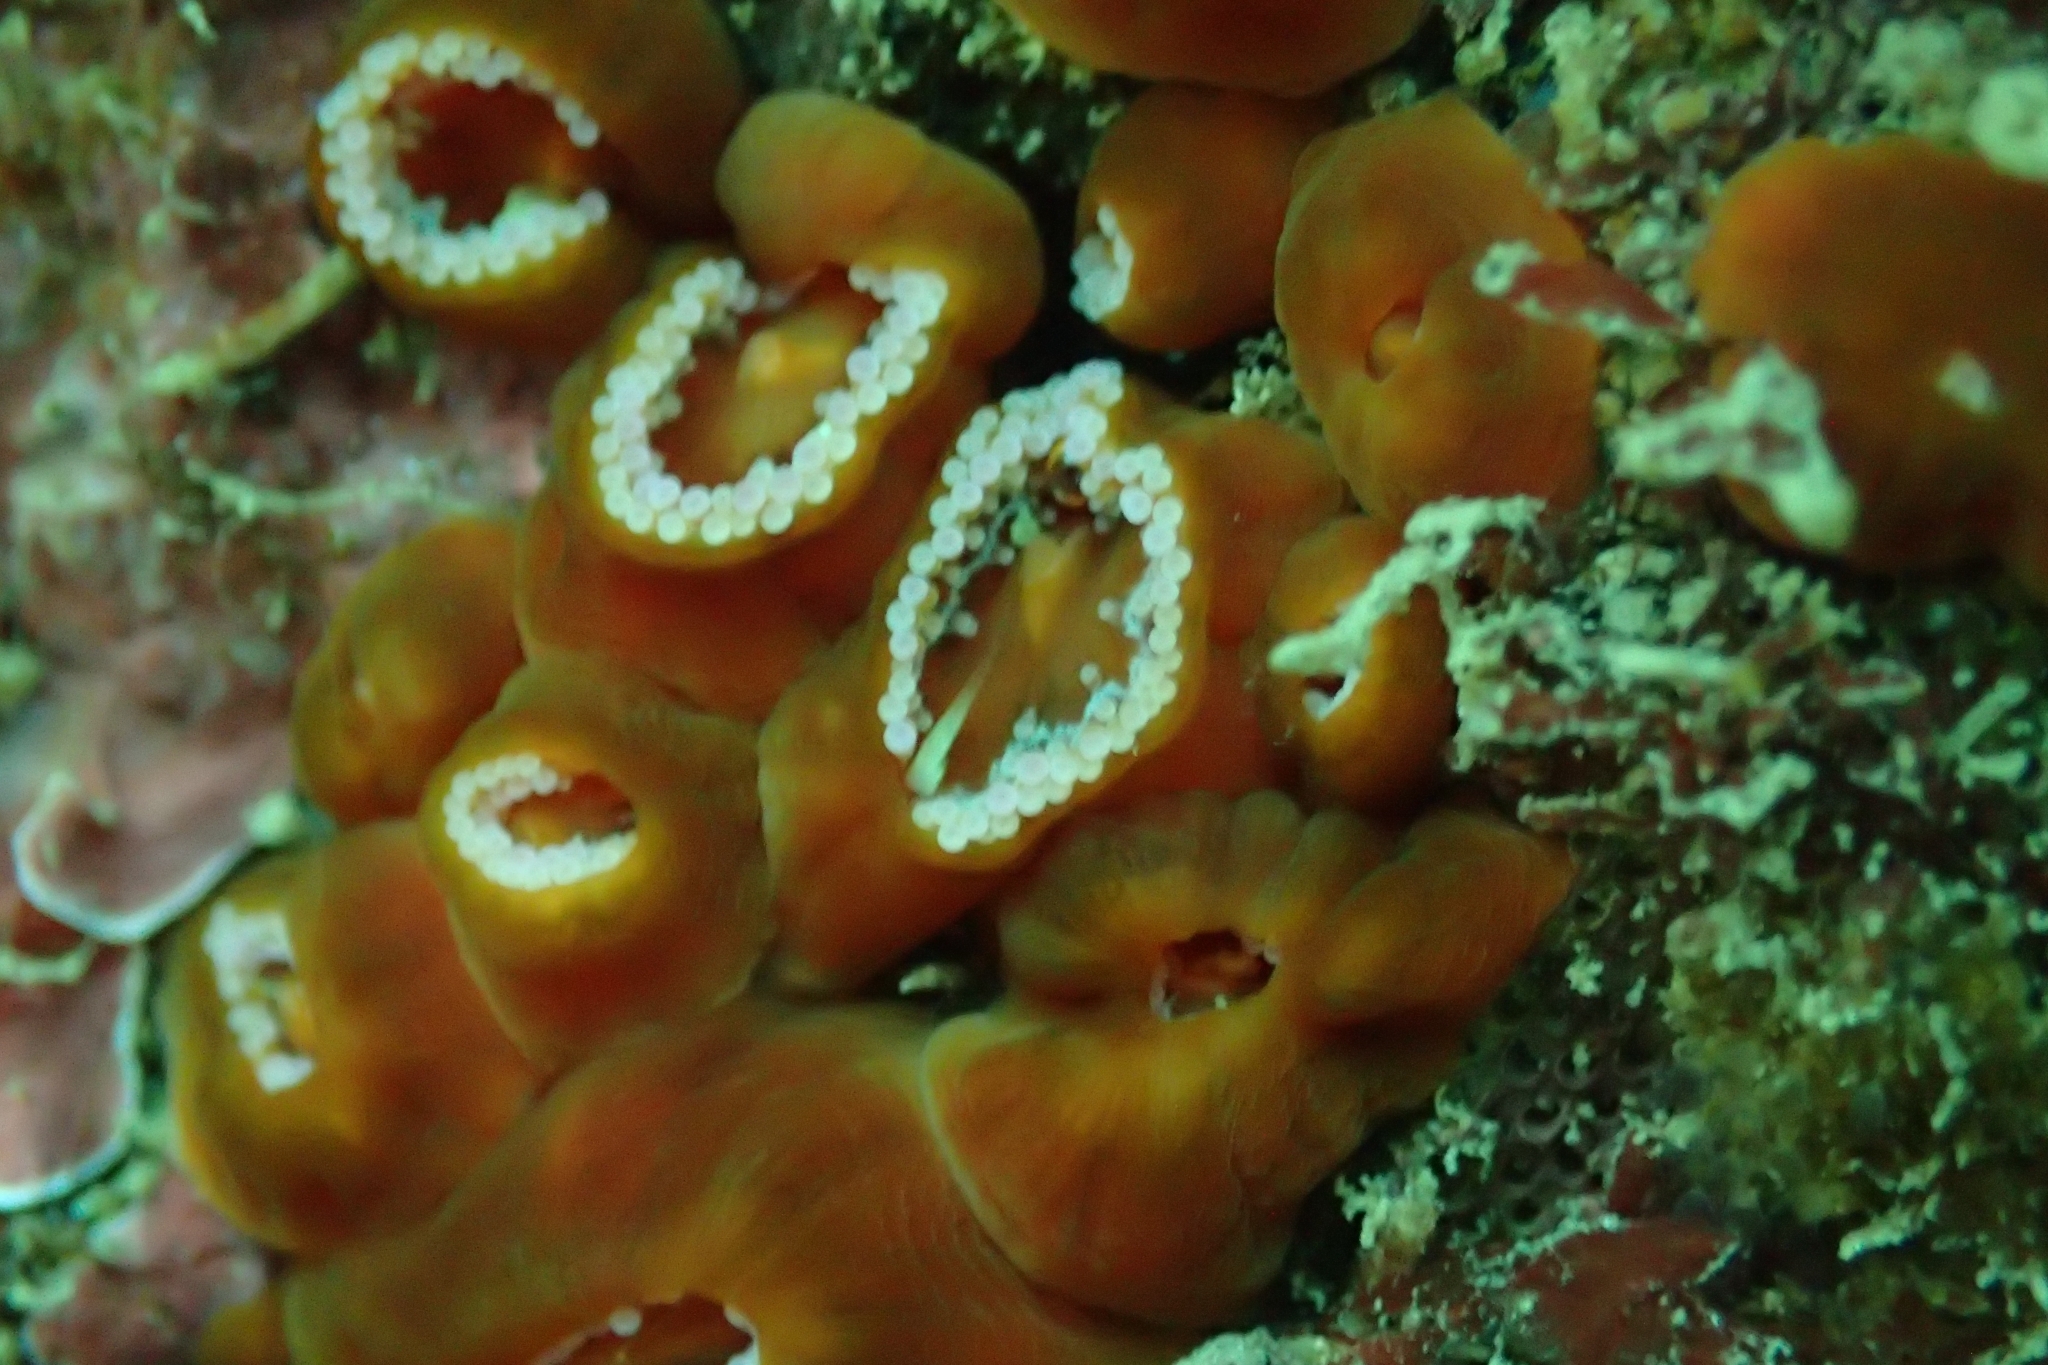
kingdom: Animalia
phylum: Cnidaria
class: Anthozoa
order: Corallimorpharia
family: Corallimorphidae
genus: Corynactis
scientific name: Corynactis australis
